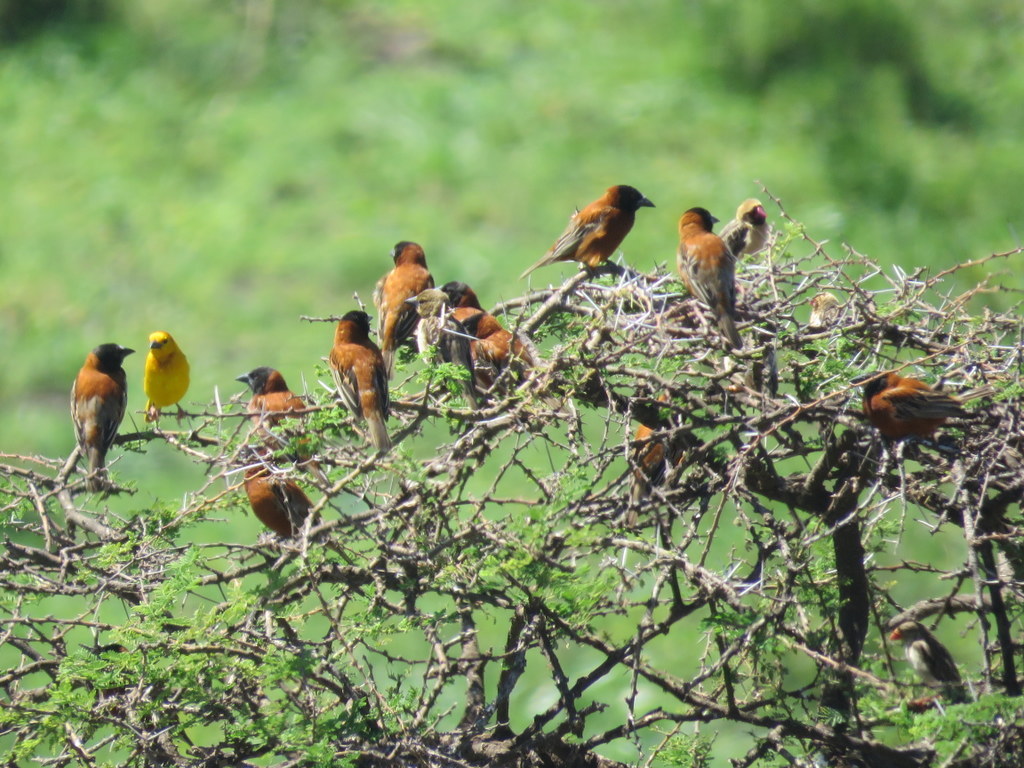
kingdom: Animalia
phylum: Chordata
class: Aves
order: Passeriformes
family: Ploceidae
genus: Ploceus
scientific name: Ploceus rubiginosus
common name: Chestnut weaver
